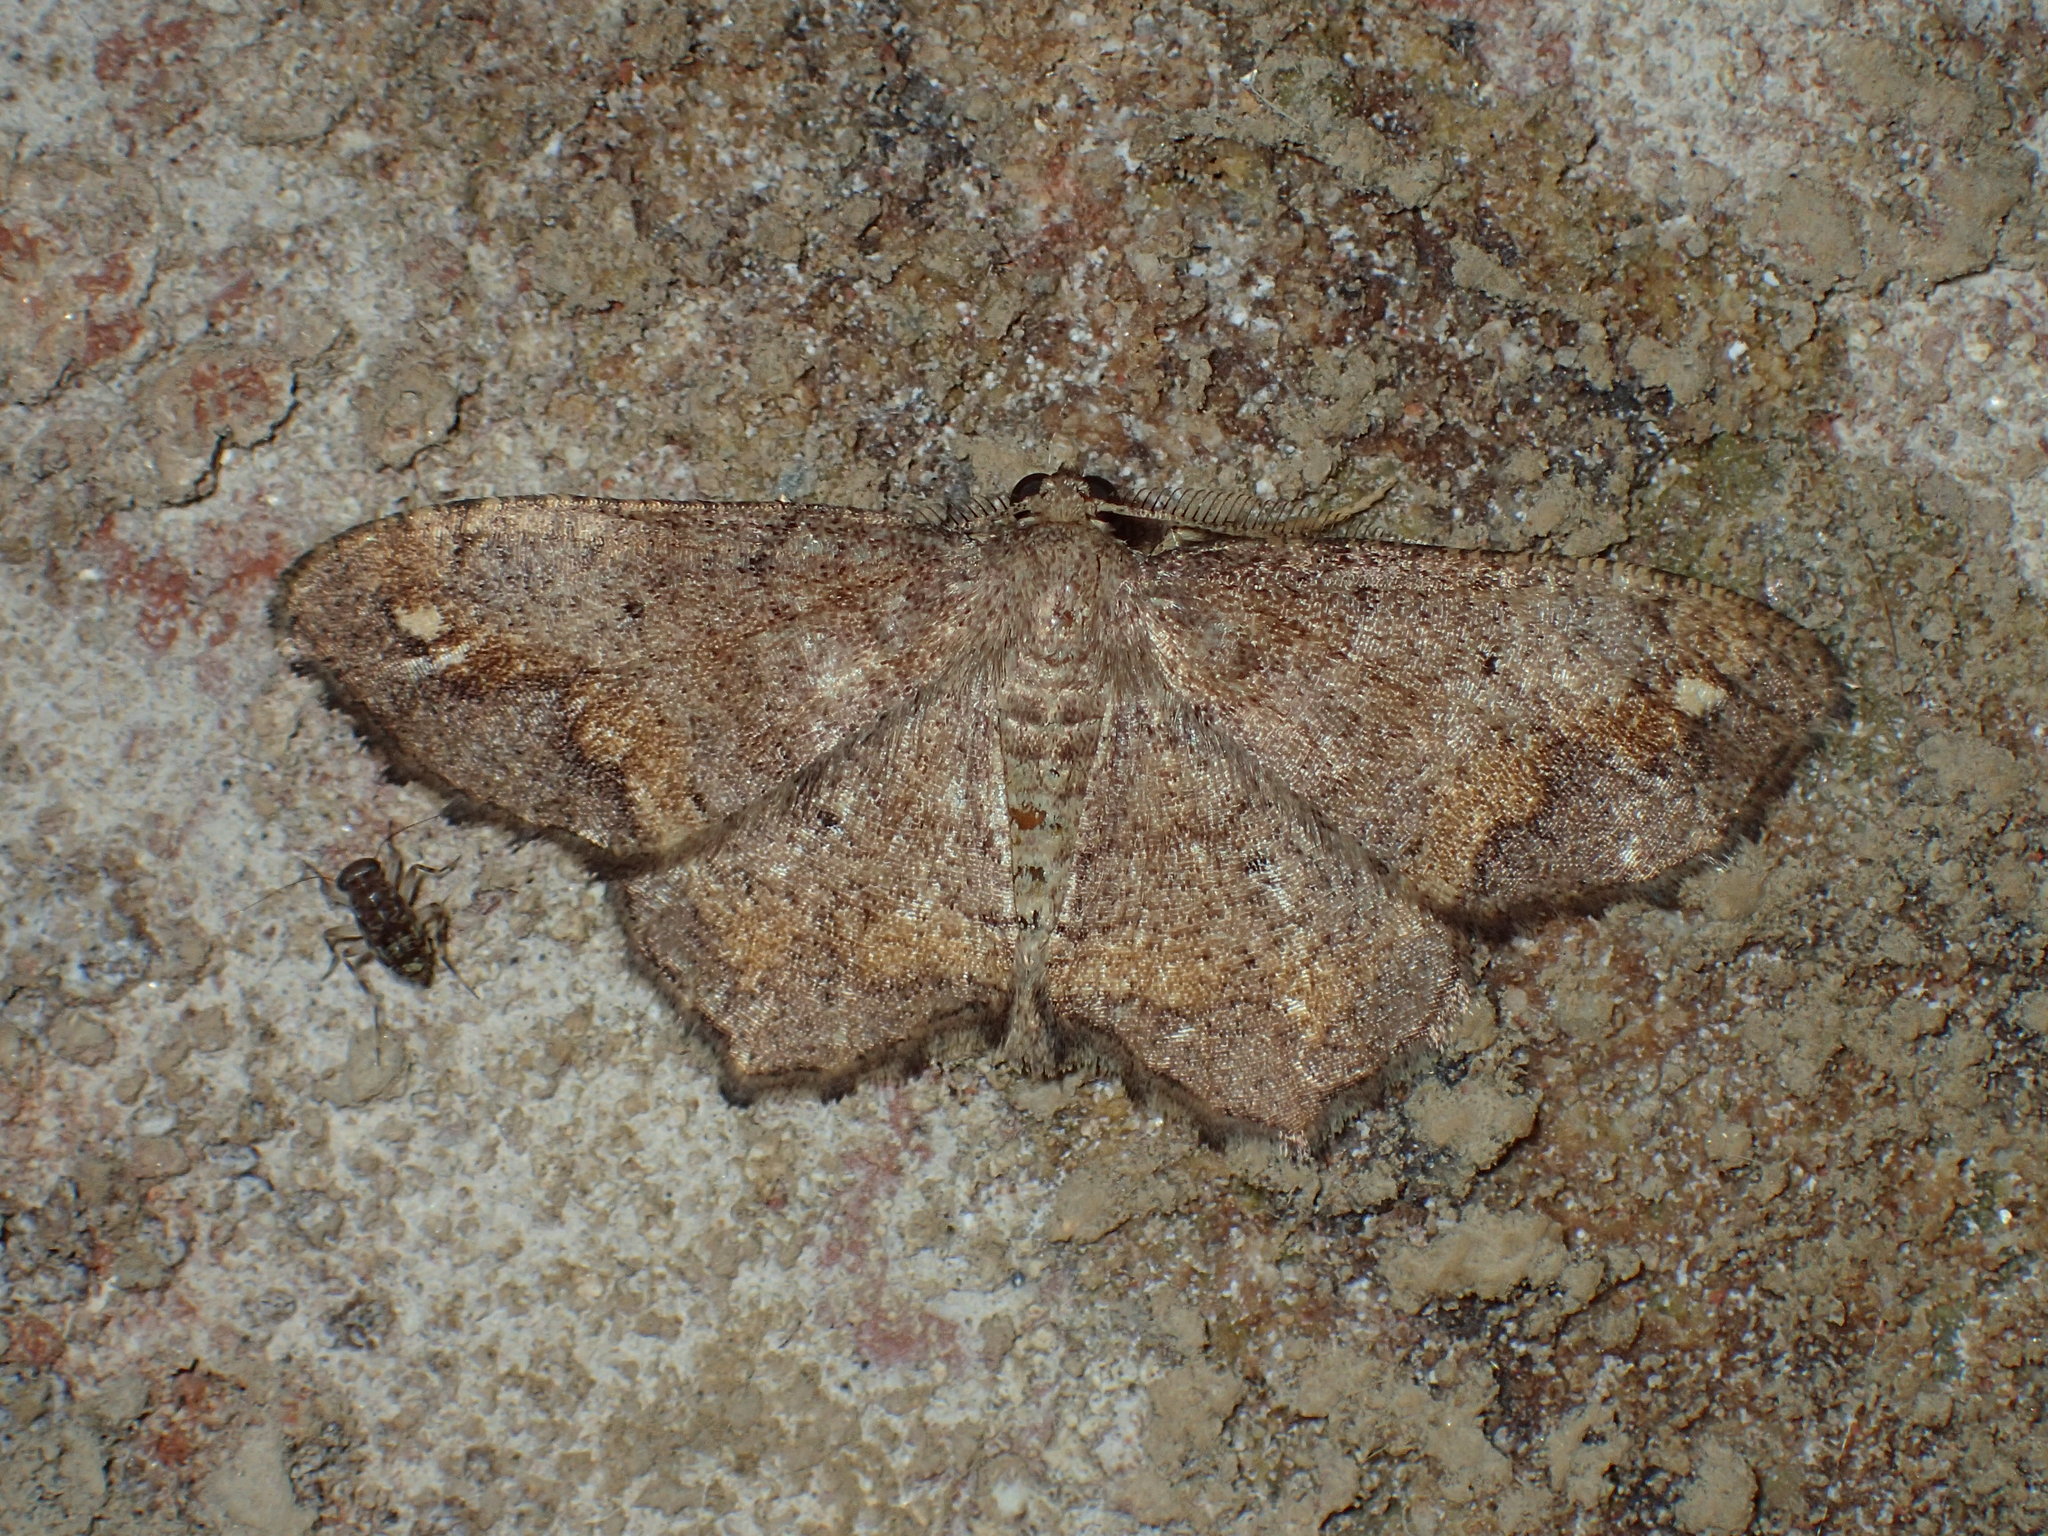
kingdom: Animalia
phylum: Arthropoda
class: Insecta
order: Lepidoptera
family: Geometridae
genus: Hypagyrtis
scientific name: Hypagyrtis unipunctata
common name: One-spotted variant
